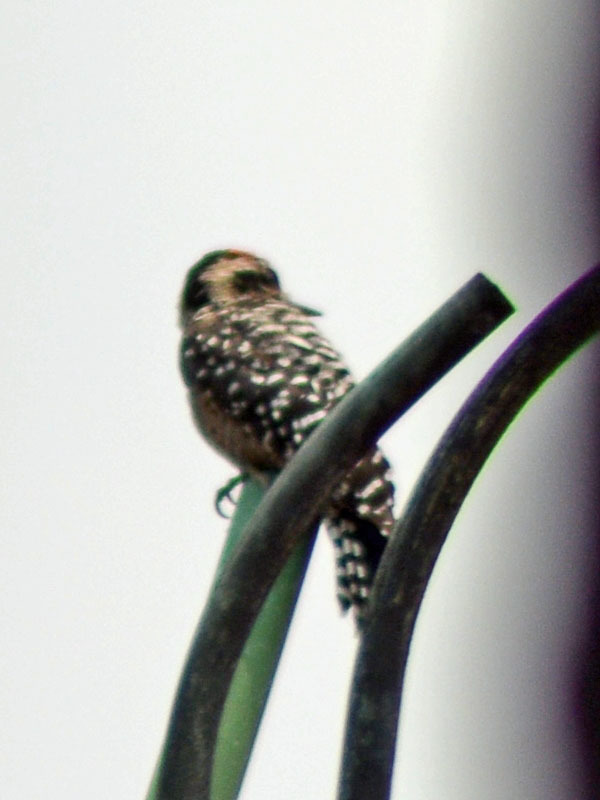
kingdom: Animalia
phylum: Chordata
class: Aves
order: Piciformes
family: Picidae
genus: Dryobates
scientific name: Dryobates scalaris
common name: Ladder-backed woodpecker
